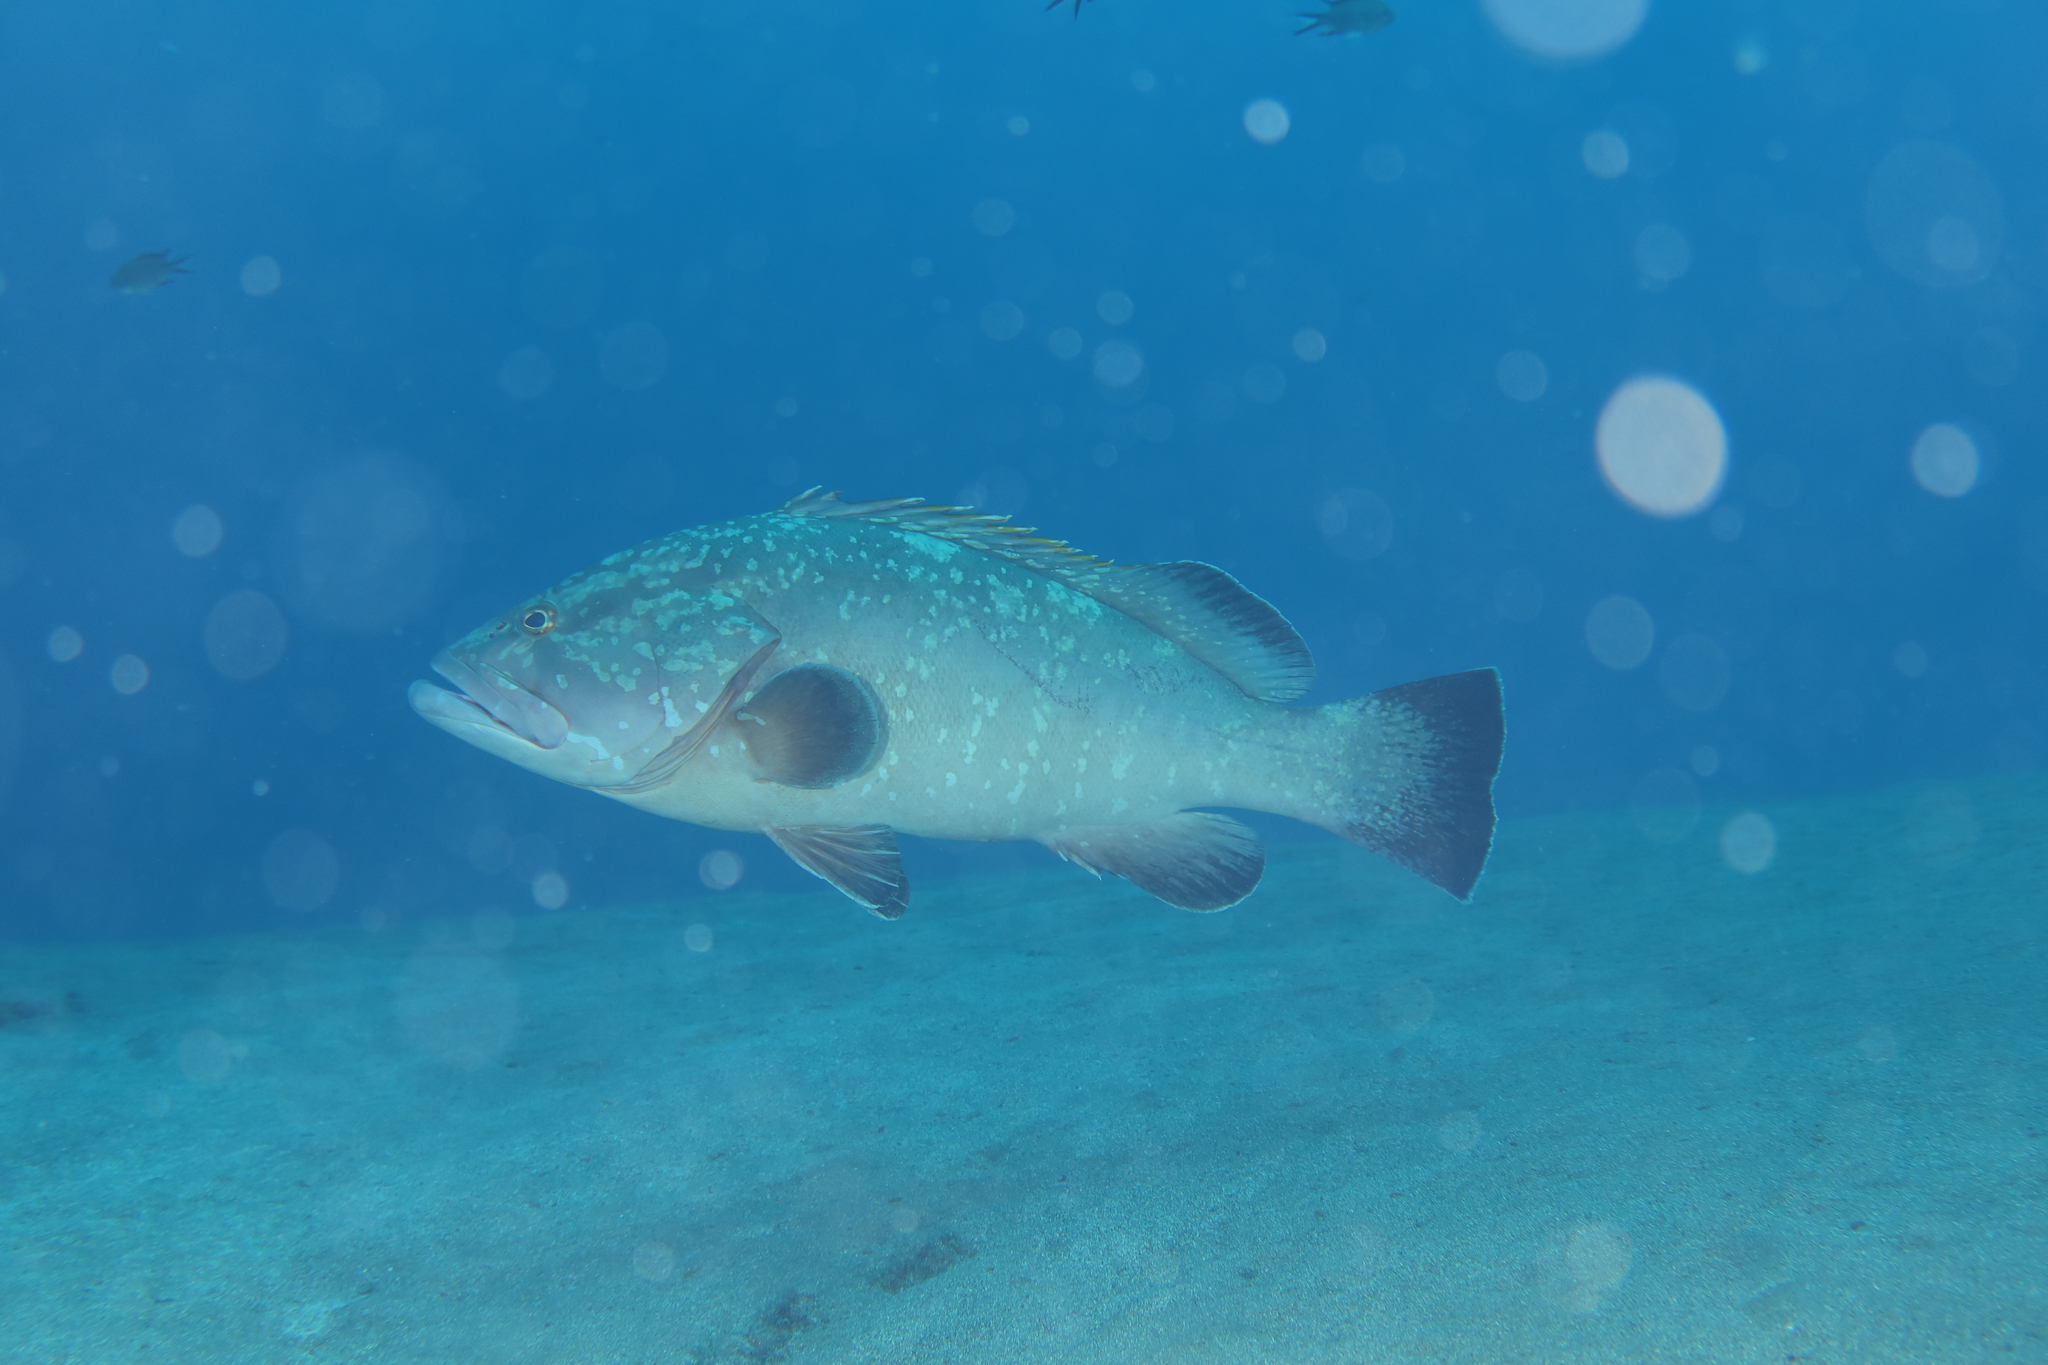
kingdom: Animalia
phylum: Chordata
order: Perciformes
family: Serranidae
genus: Epinephelus
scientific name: Epinephelus marginatus
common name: Dusky grouper
